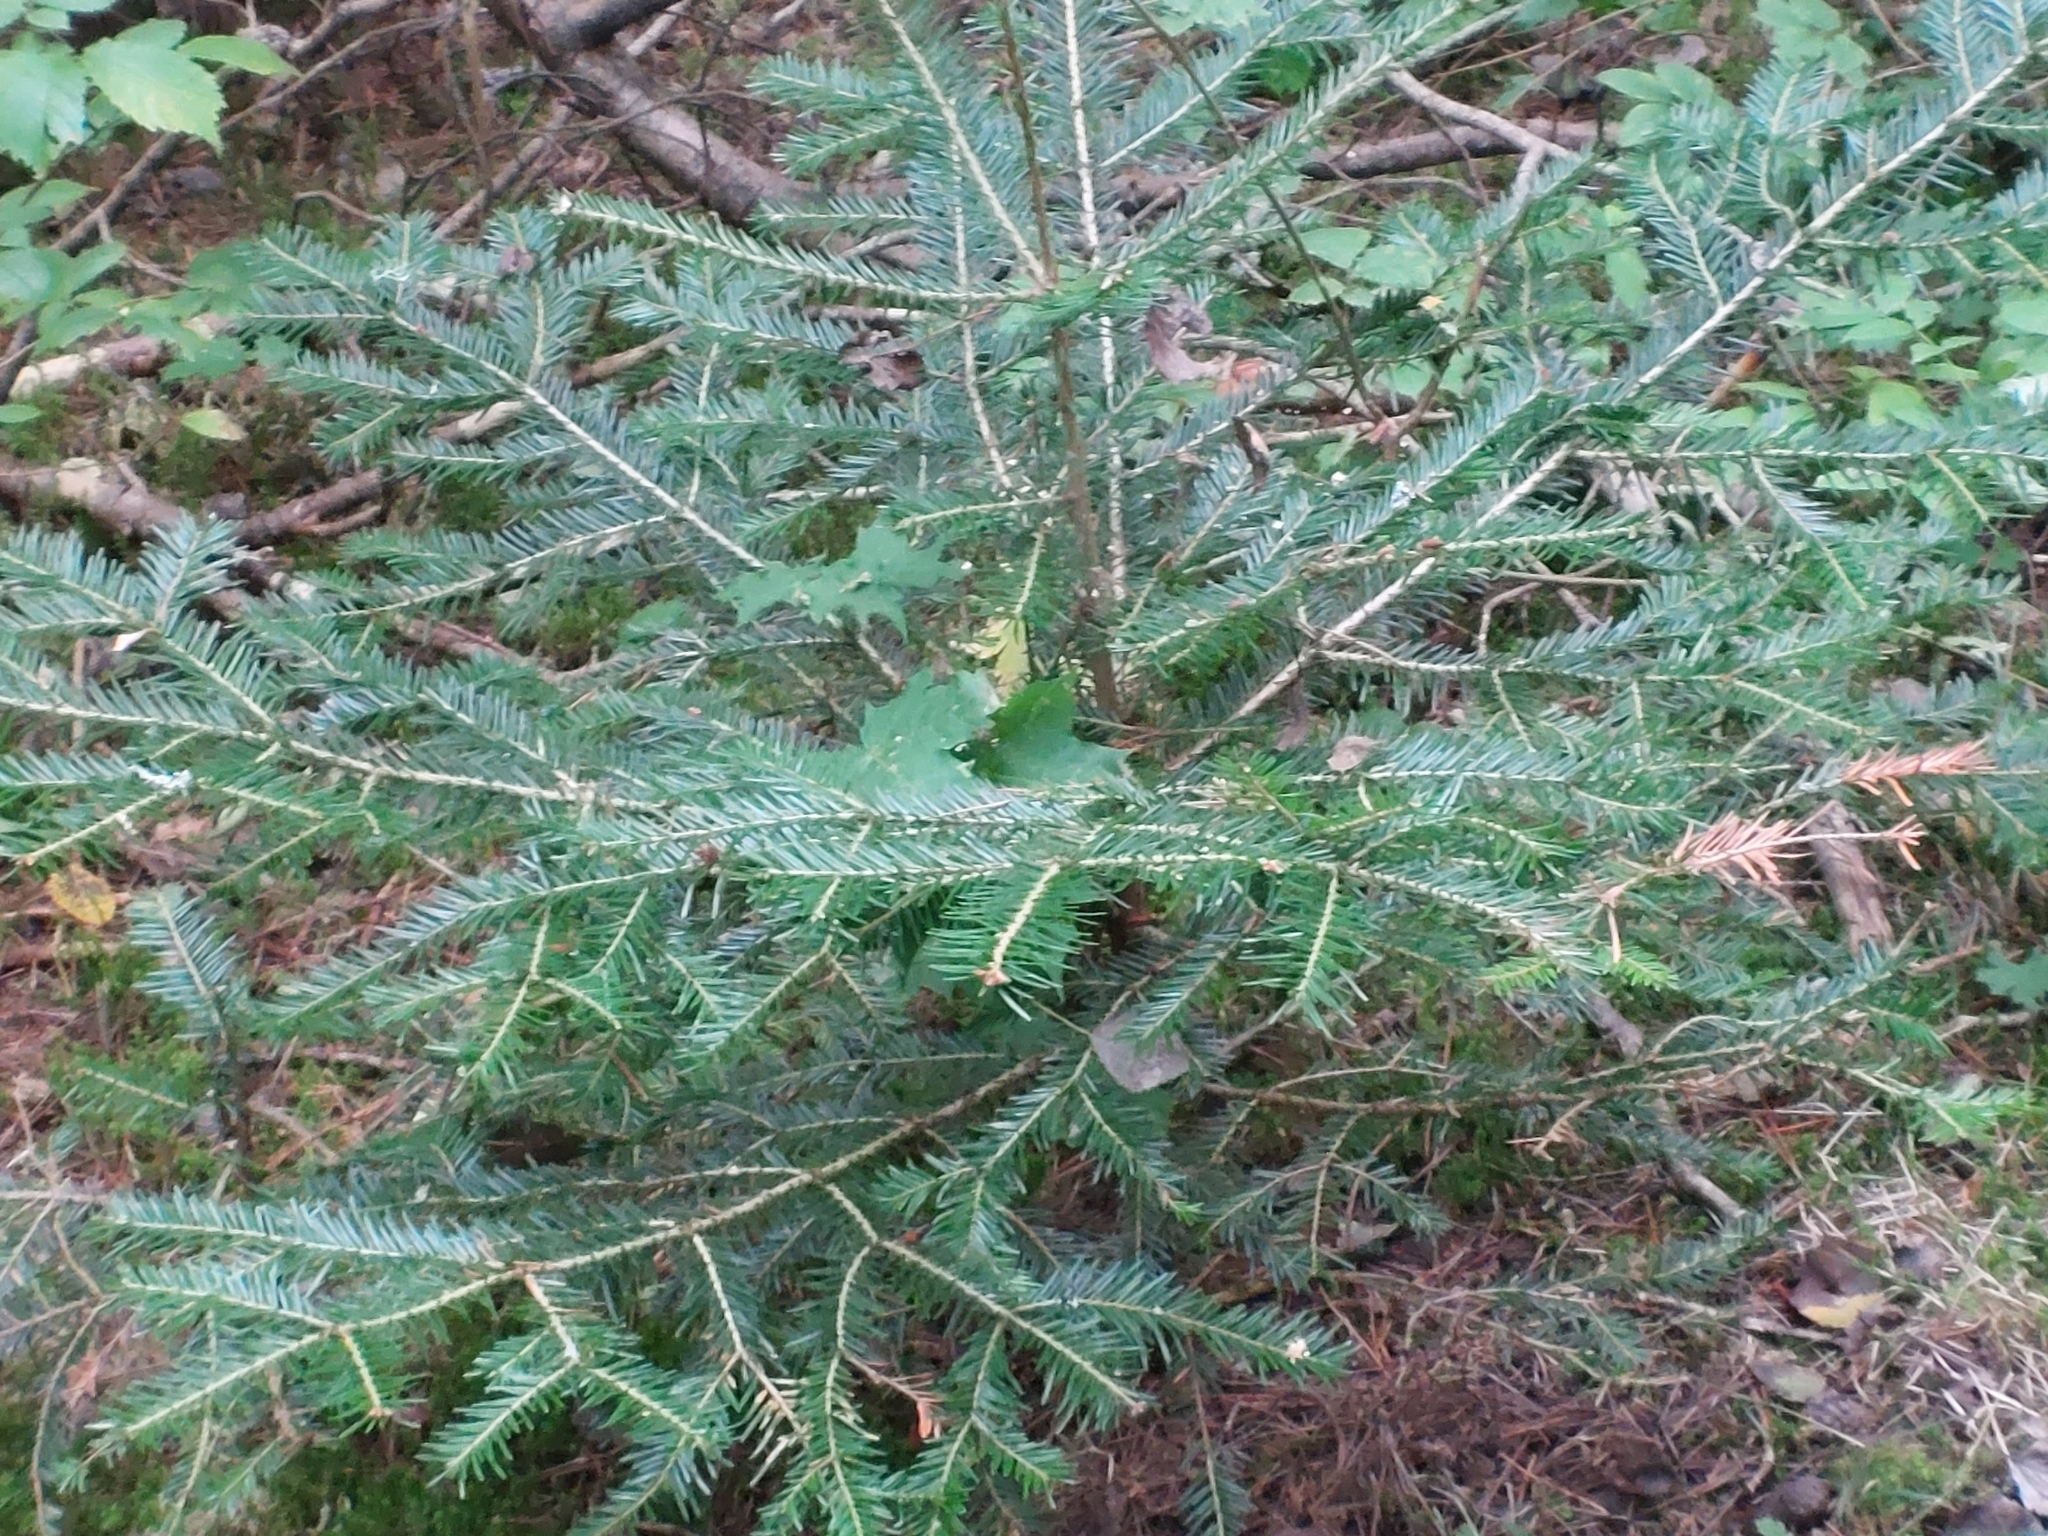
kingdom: Plantae
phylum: Tracheophyta
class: Pinopsida
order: Pinales
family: Pinaceae
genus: Abies
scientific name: Abies alba
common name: Silver fir
